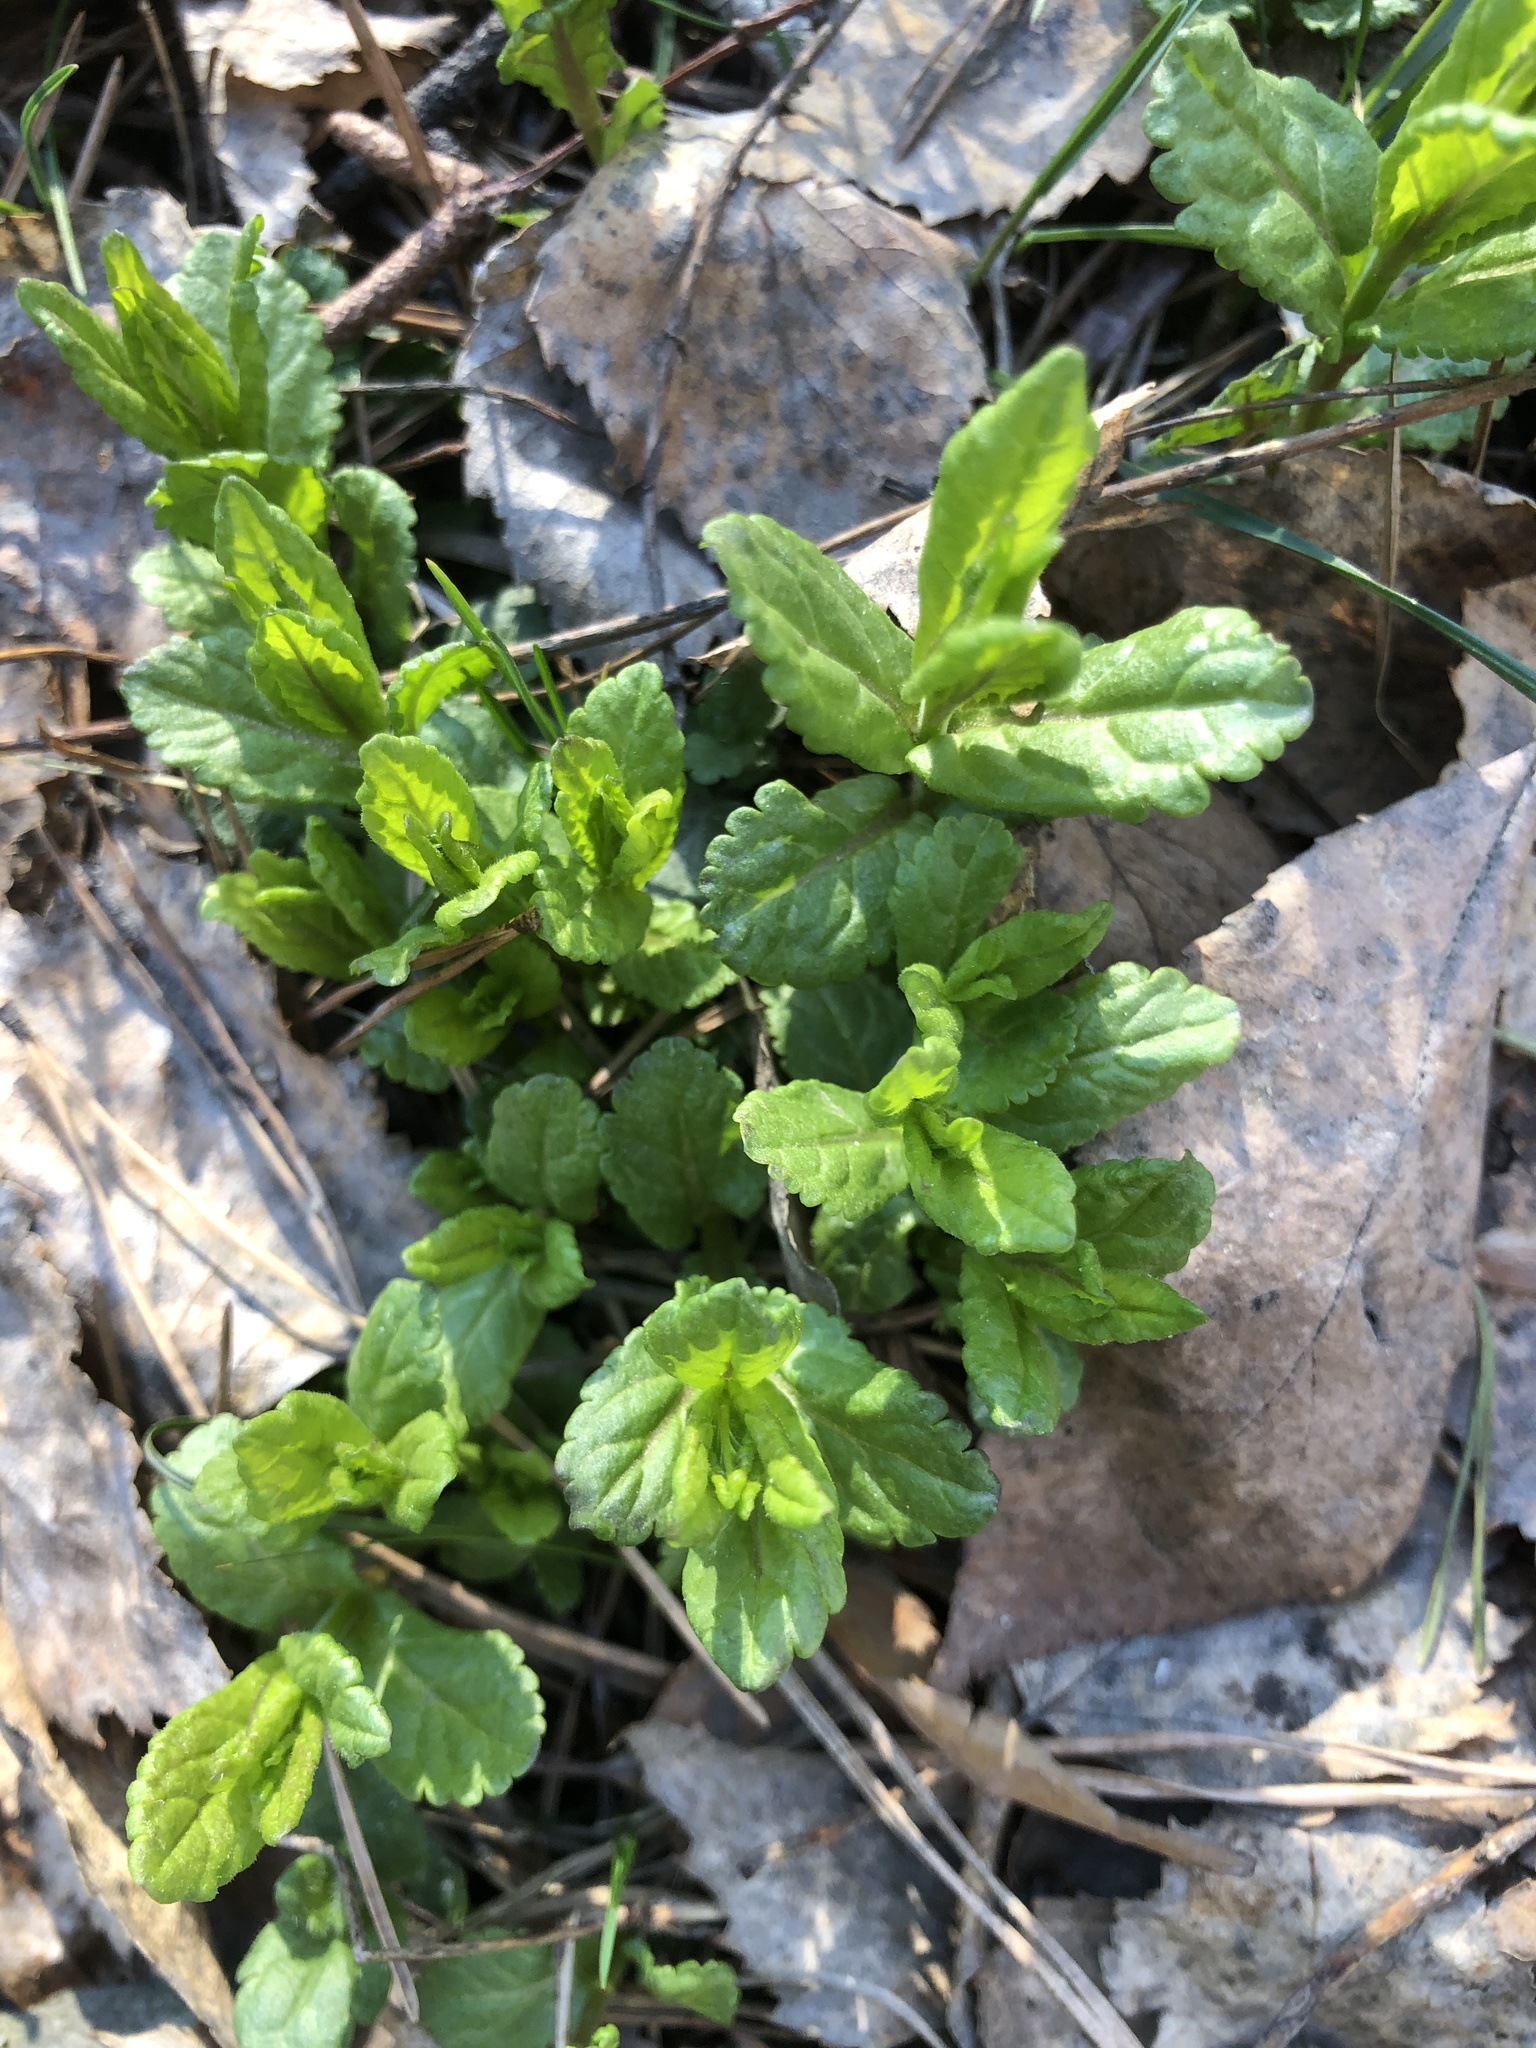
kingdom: Plantae
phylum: Tracheophyta
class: Magnoliopsida
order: Lamiales
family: Plantaginaceae
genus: Veronica
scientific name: Veronica chamaedrys
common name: Germander speedwell
